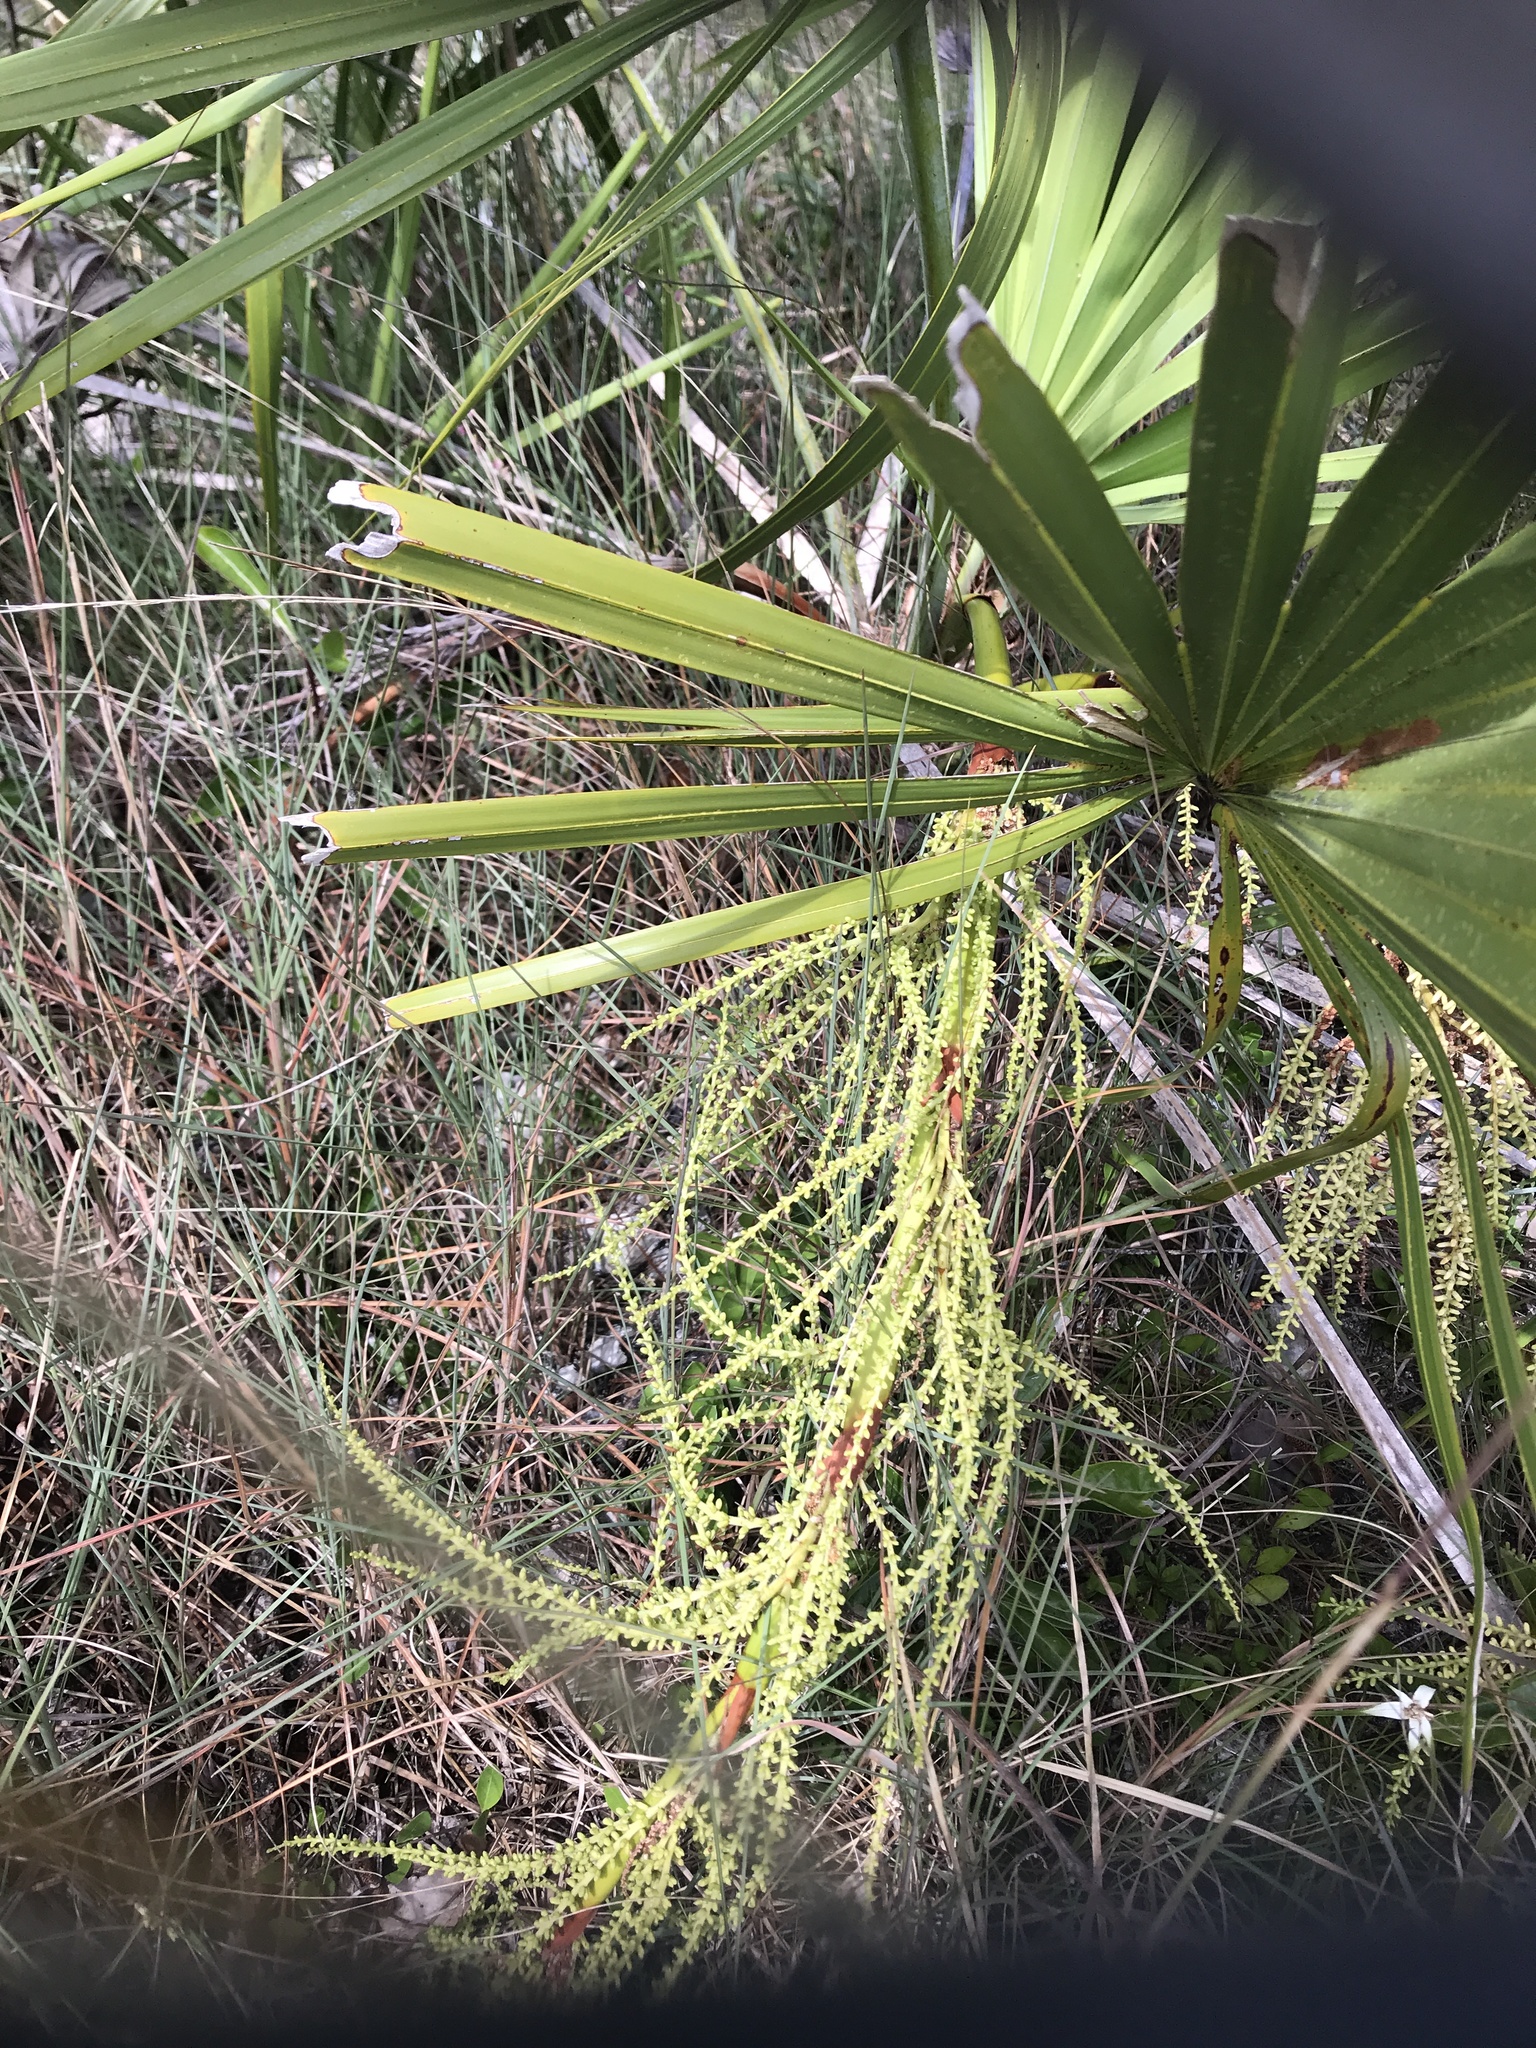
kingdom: Plantae
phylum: Tracheophyta
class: Liliopsida
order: Arecales
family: Arecaceae
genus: Serenoa
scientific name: Serenoa repens
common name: Saw-palmetto
